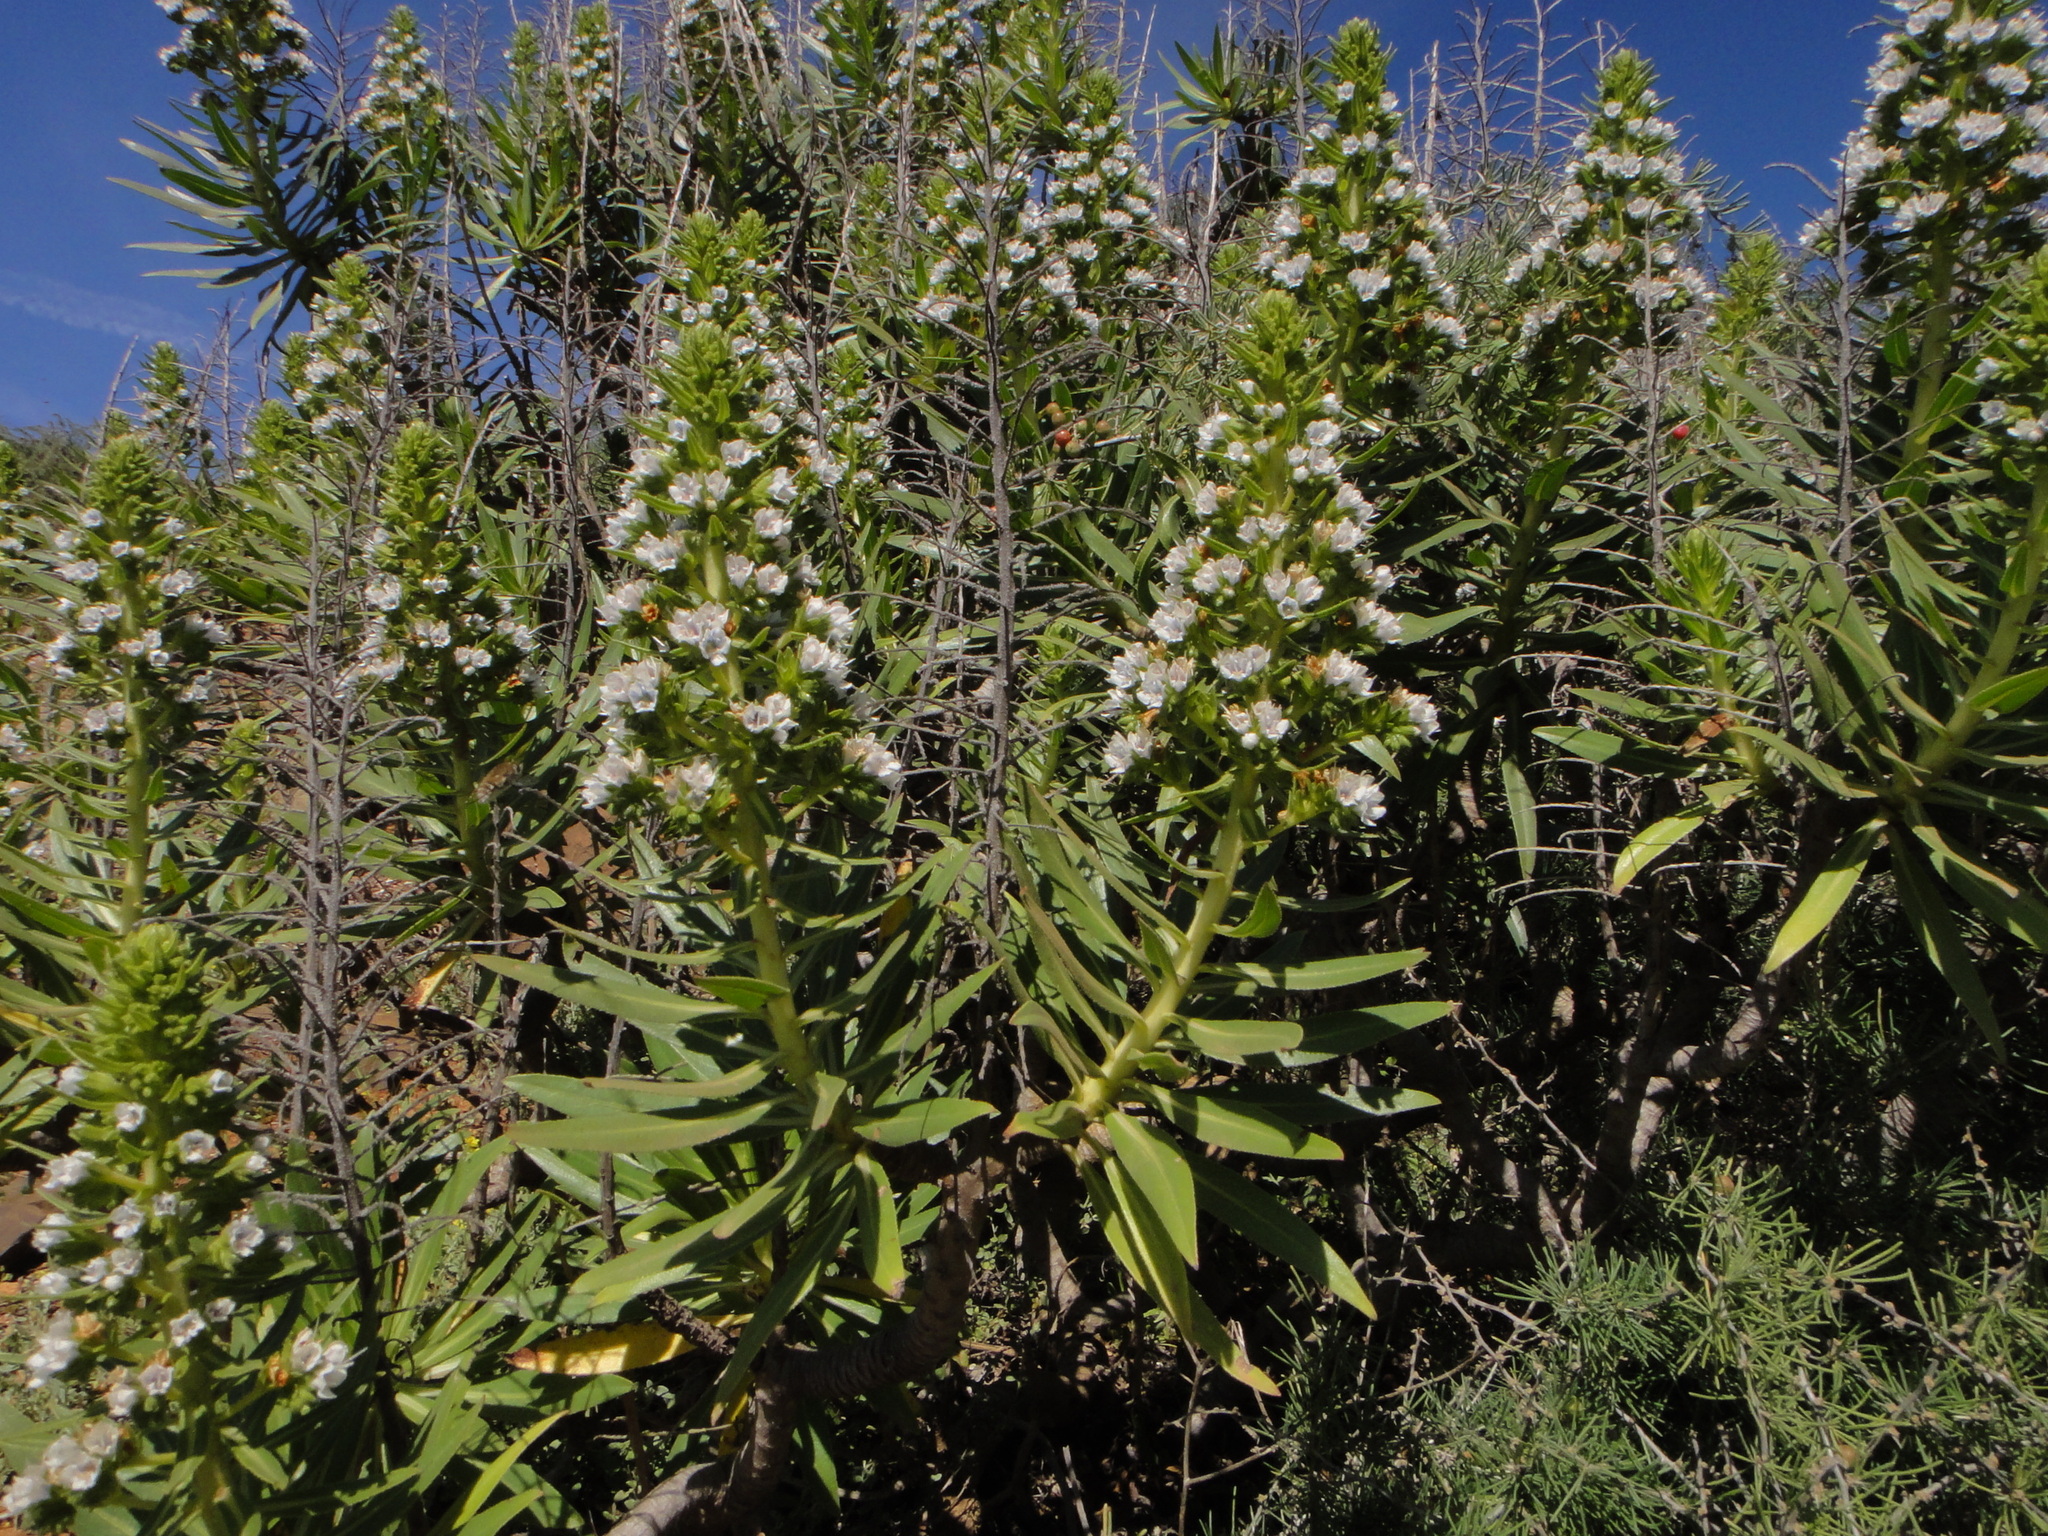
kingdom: Plantae
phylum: Tracheophyta
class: Magnoliopsida
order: Boraginales
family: Boraginaceae
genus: Echium
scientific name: Echium decaisnei
